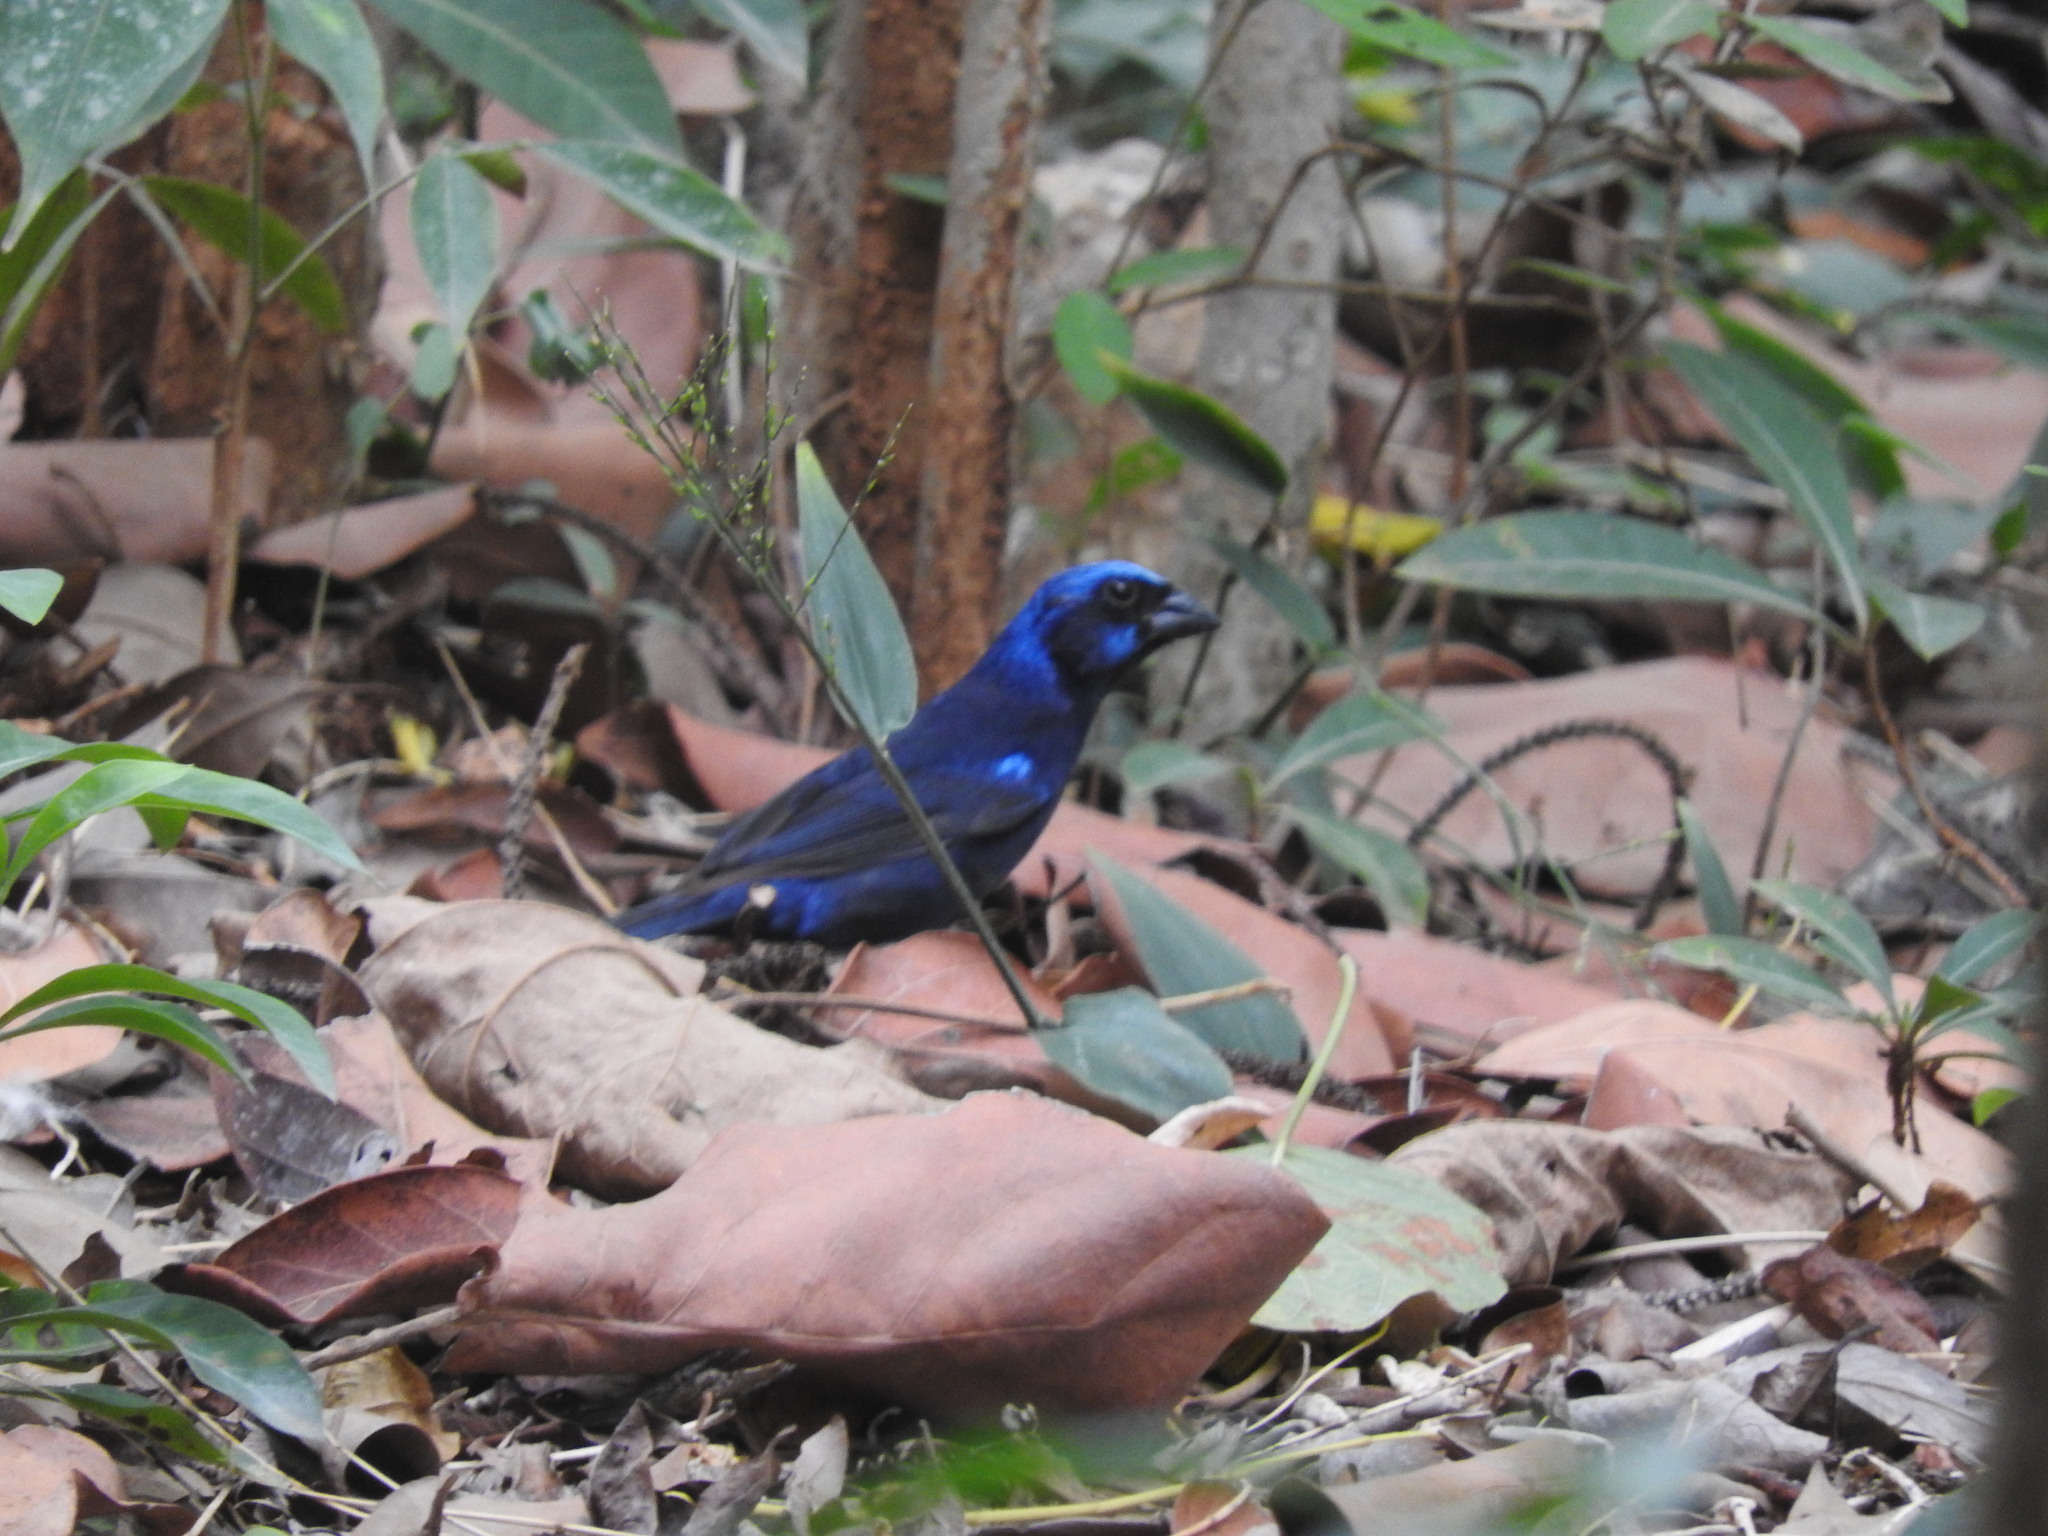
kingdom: Animalia
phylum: Chordata
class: Aves
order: Passeriformes
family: Cardinalidae
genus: Cyanocompsa
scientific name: Cyanocompsa parellina
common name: Blue bunting
